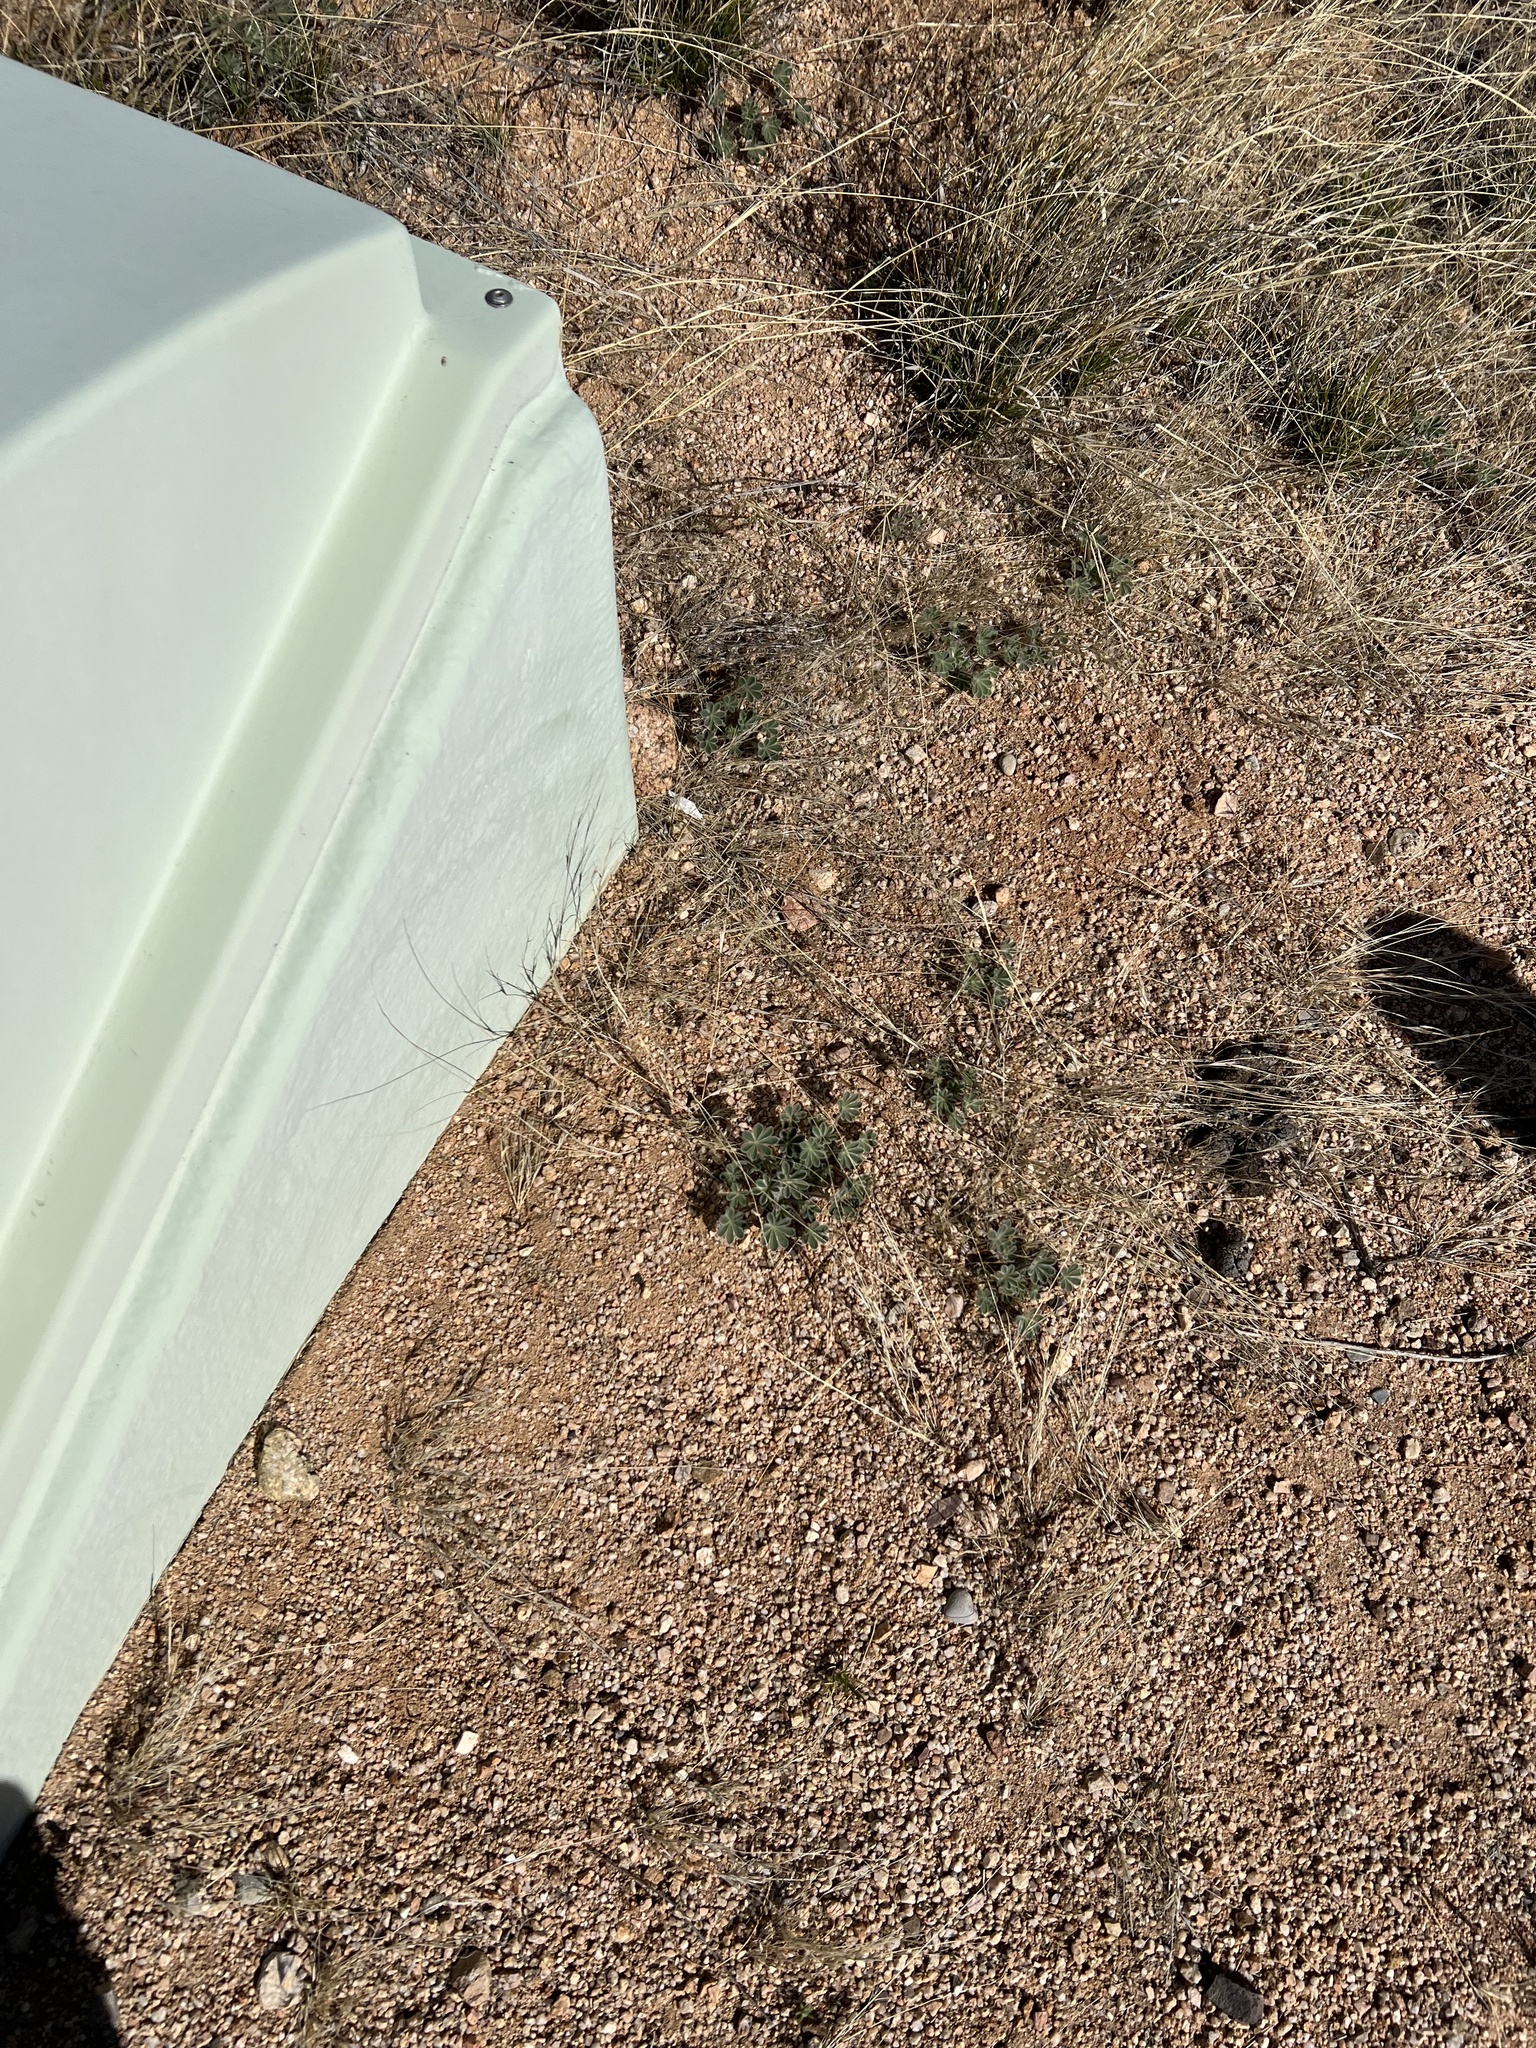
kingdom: Plantae
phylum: Tracheophyta
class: Magnoliopsida
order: Fabales
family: Fabaceae
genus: Lupinus
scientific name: Lupinus concinnus
